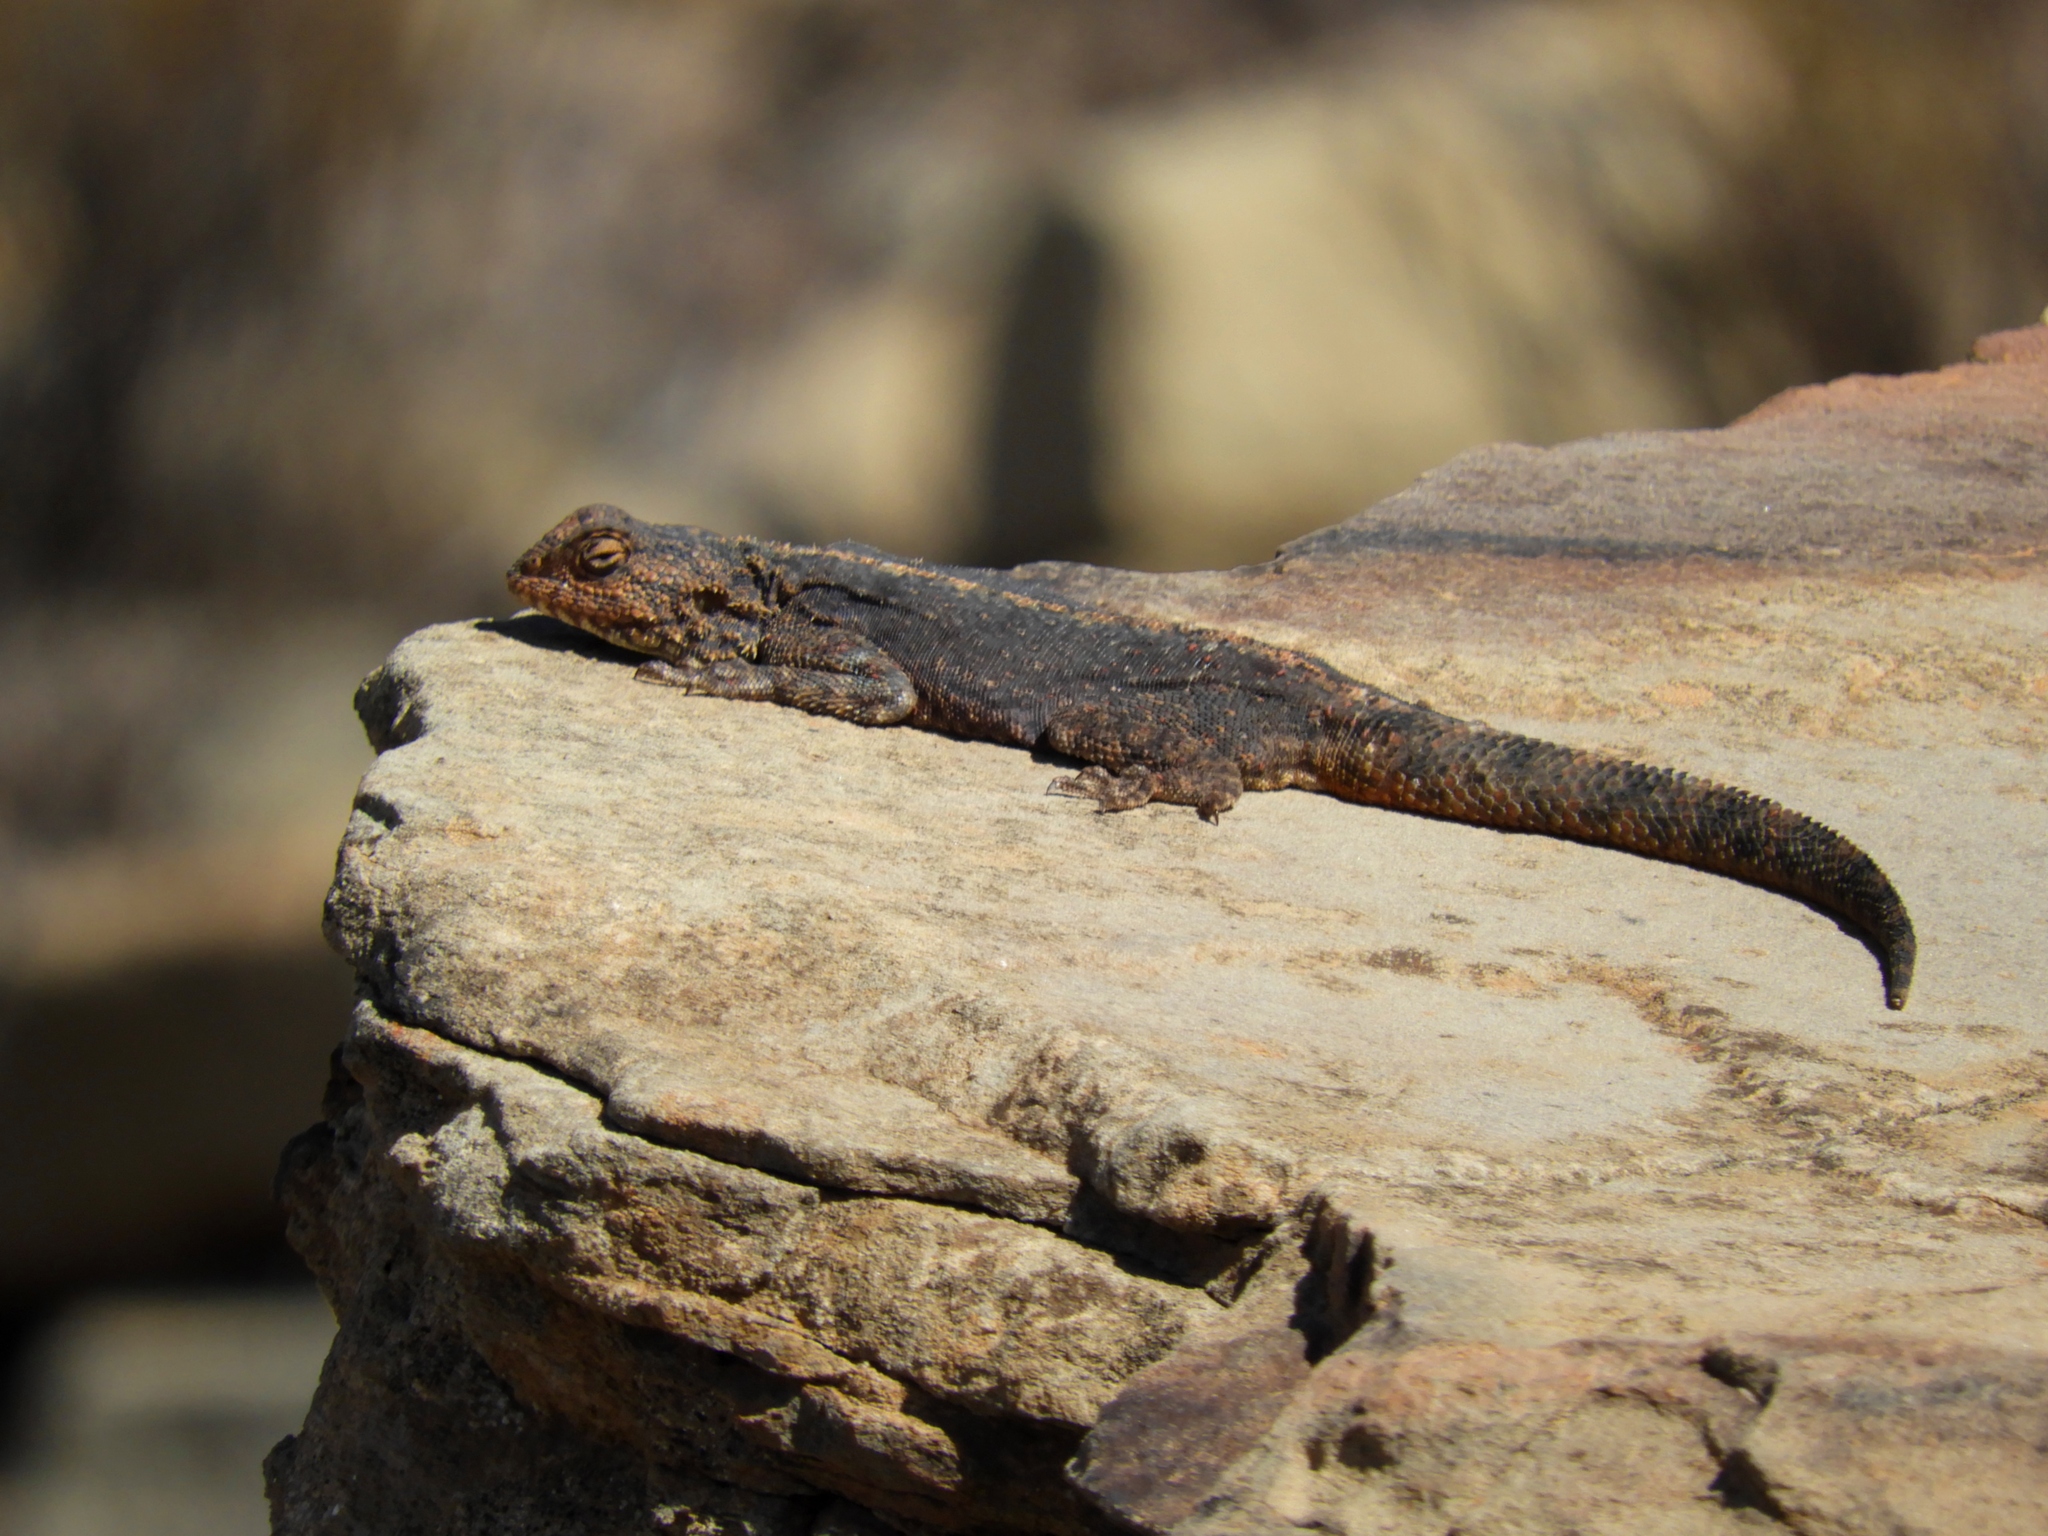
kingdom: Animalia
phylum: Chordata
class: Squamata
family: Agamidae
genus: Agama
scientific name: Agama atra
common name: Southern african rock agama
